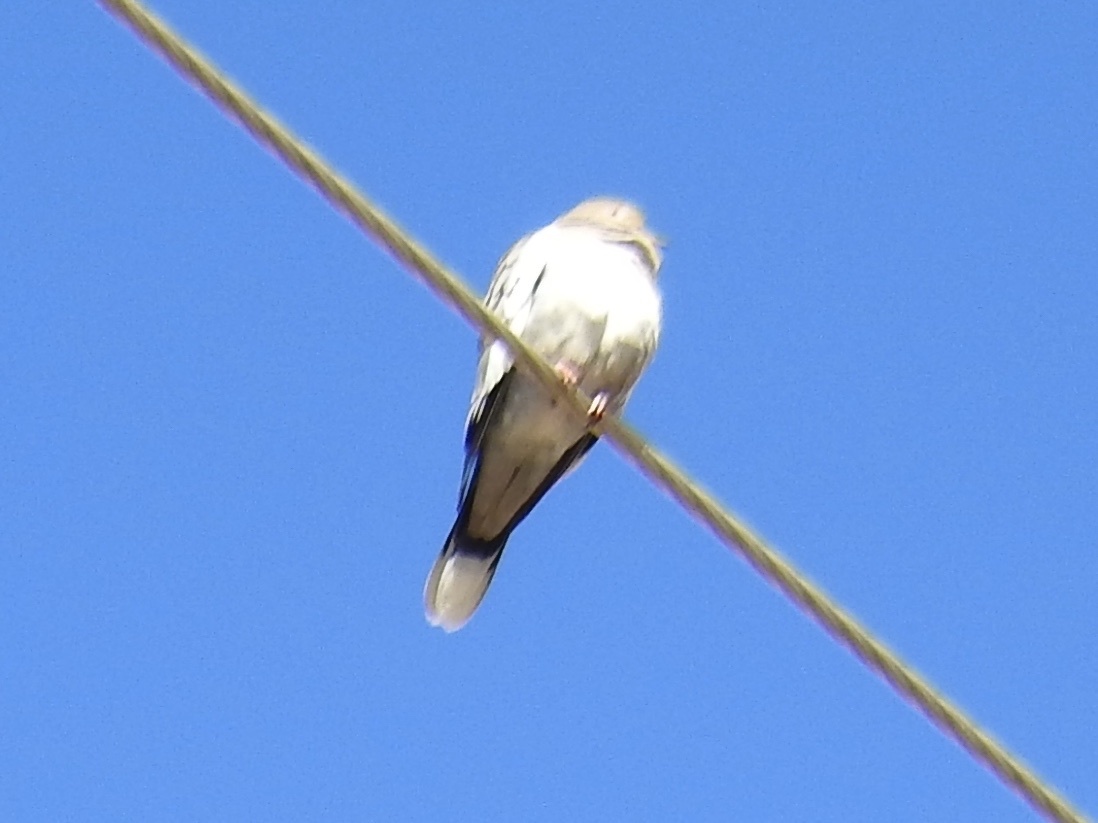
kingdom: Animalia
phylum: Chordata
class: Aves
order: Columbiformes
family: Columbidae
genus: Zenaida
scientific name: Zenaida asiatica
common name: White-winged dove
